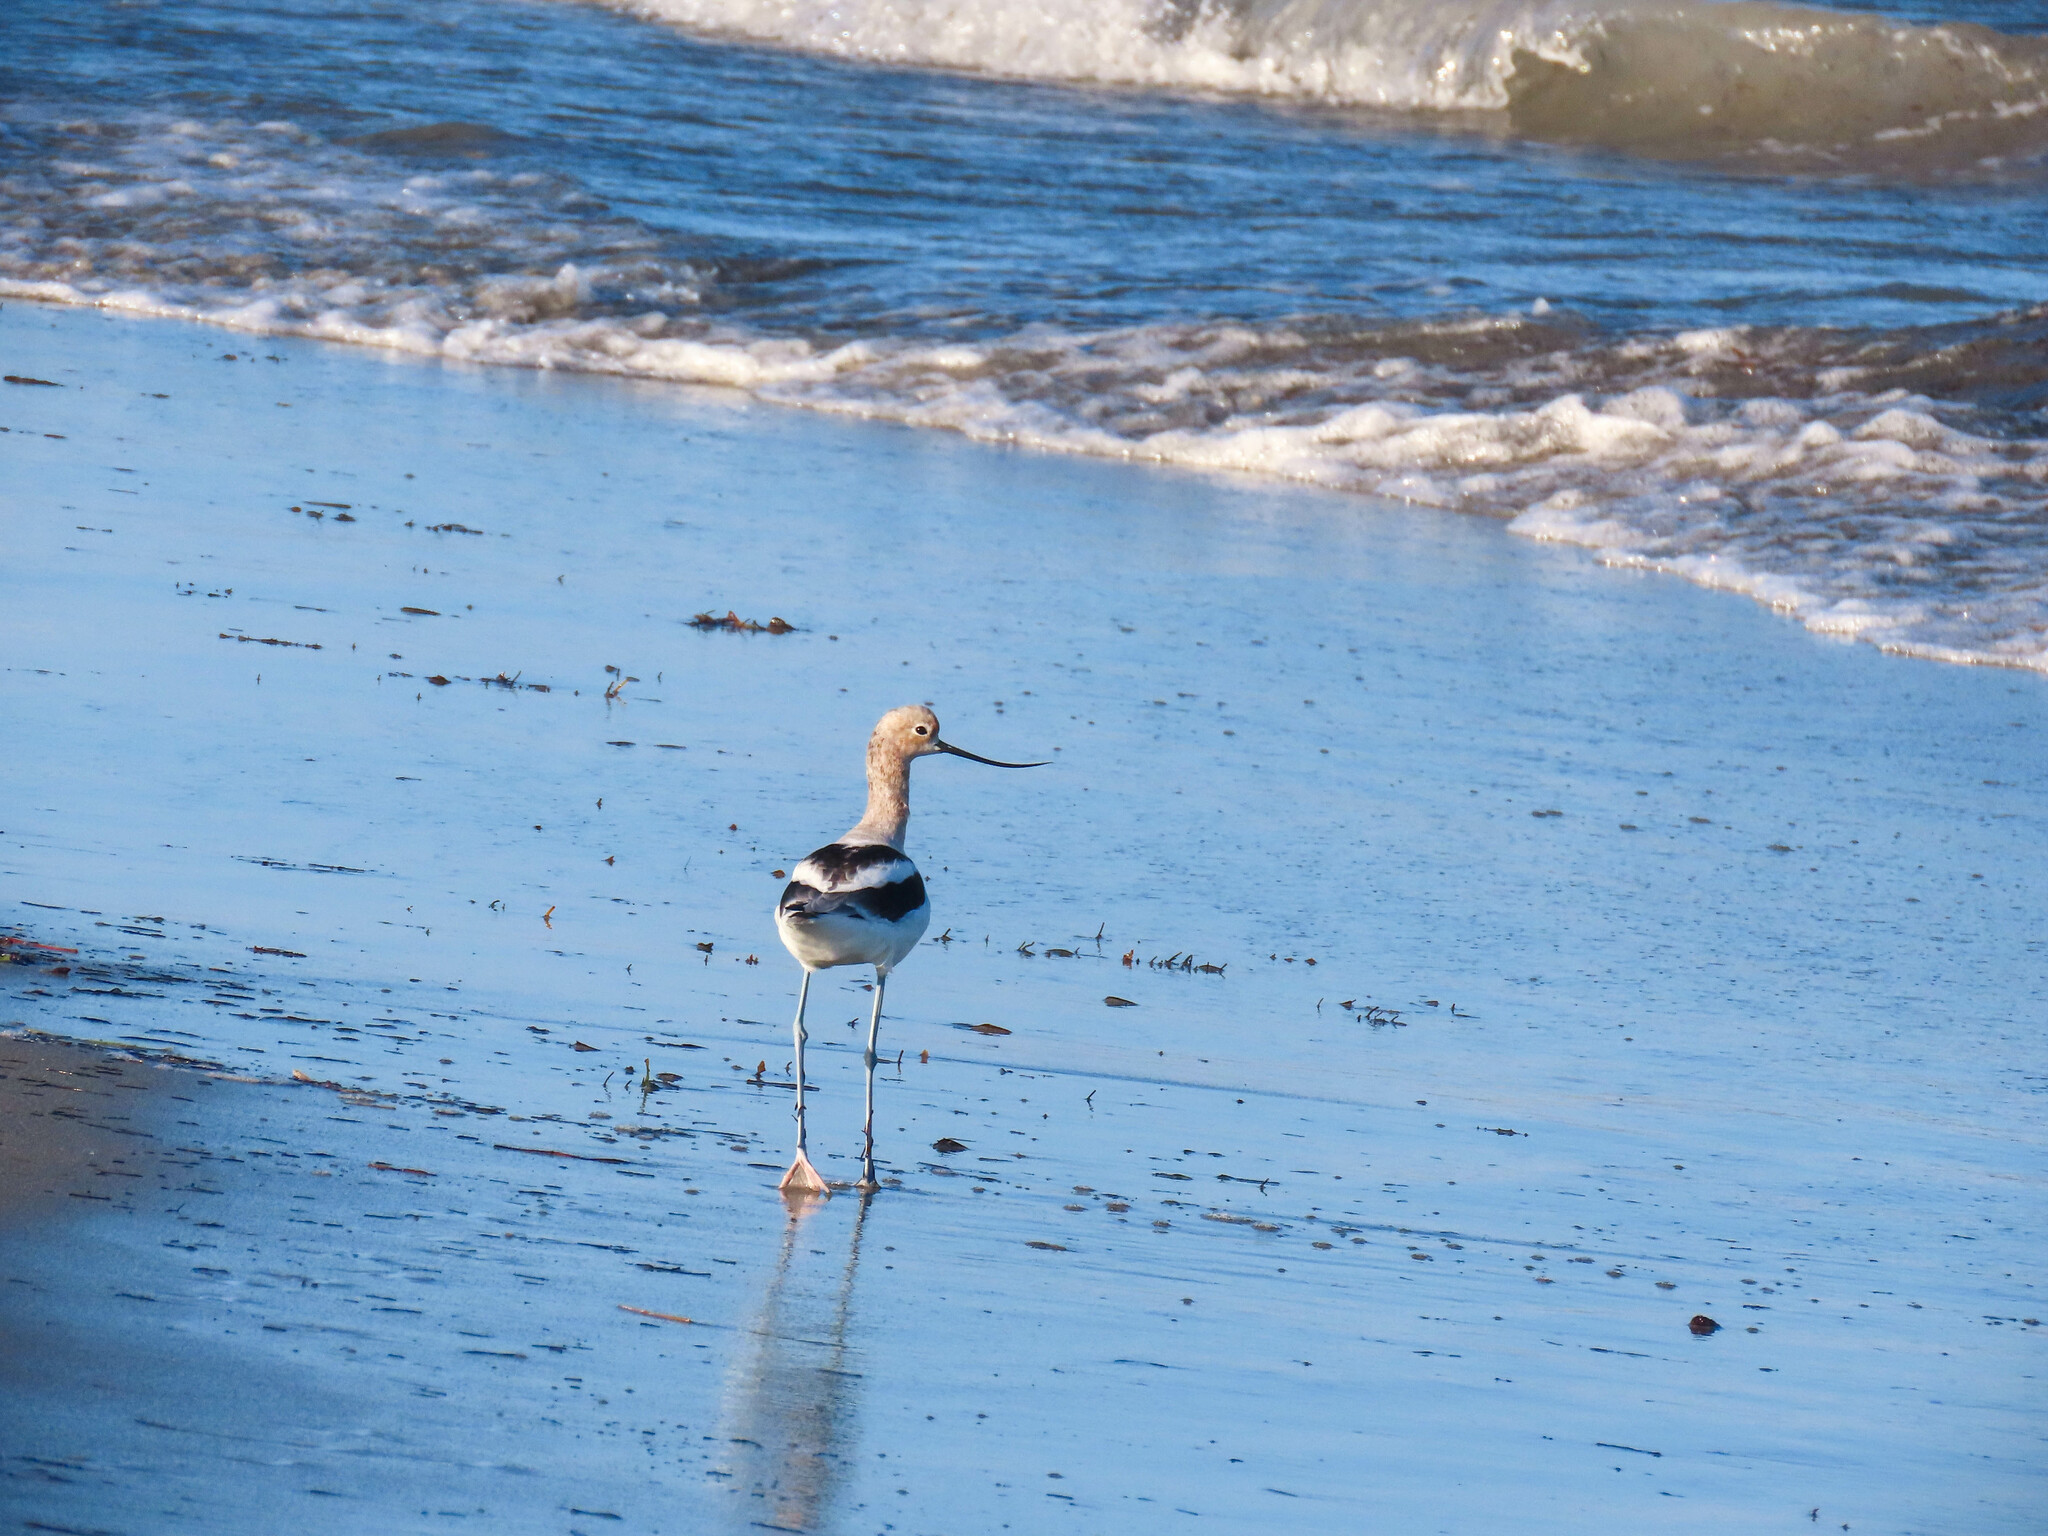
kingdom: Animalia
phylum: Chordata
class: Aves
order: Charadriiformes
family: Recurvirostridae
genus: Recurvirostra
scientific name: Recurvirostra americana
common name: American avocet
